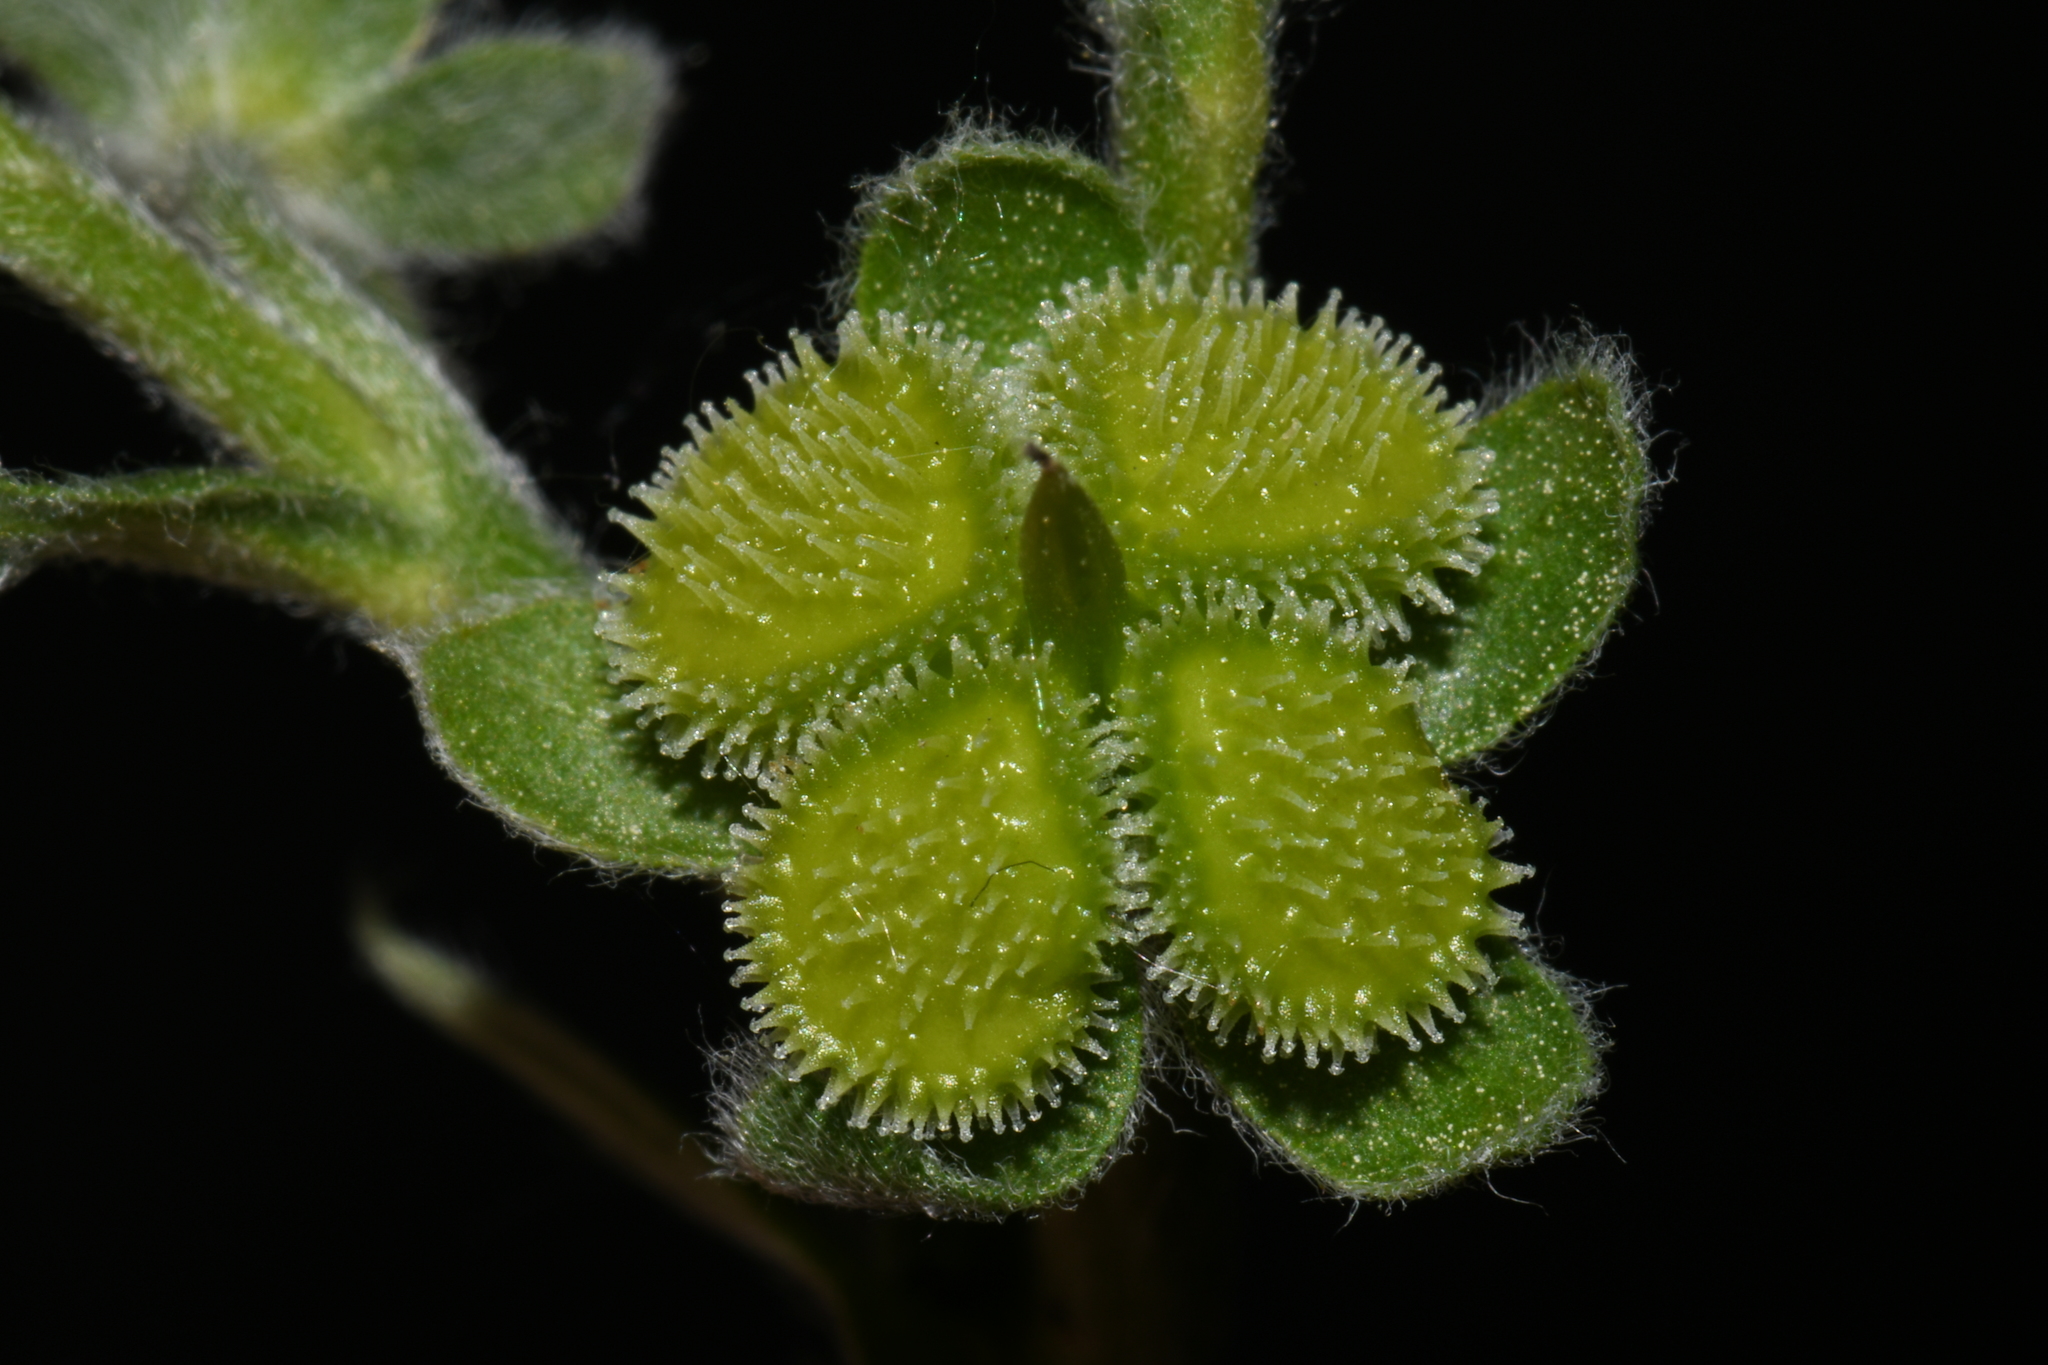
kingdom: Plantae
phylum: Tracheophyta
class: Magnoliopsida
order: Boraginales
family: Boraginaceae
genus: Cynoglossum
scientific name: Cynoglossum officinale
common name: Hound's-tongue
